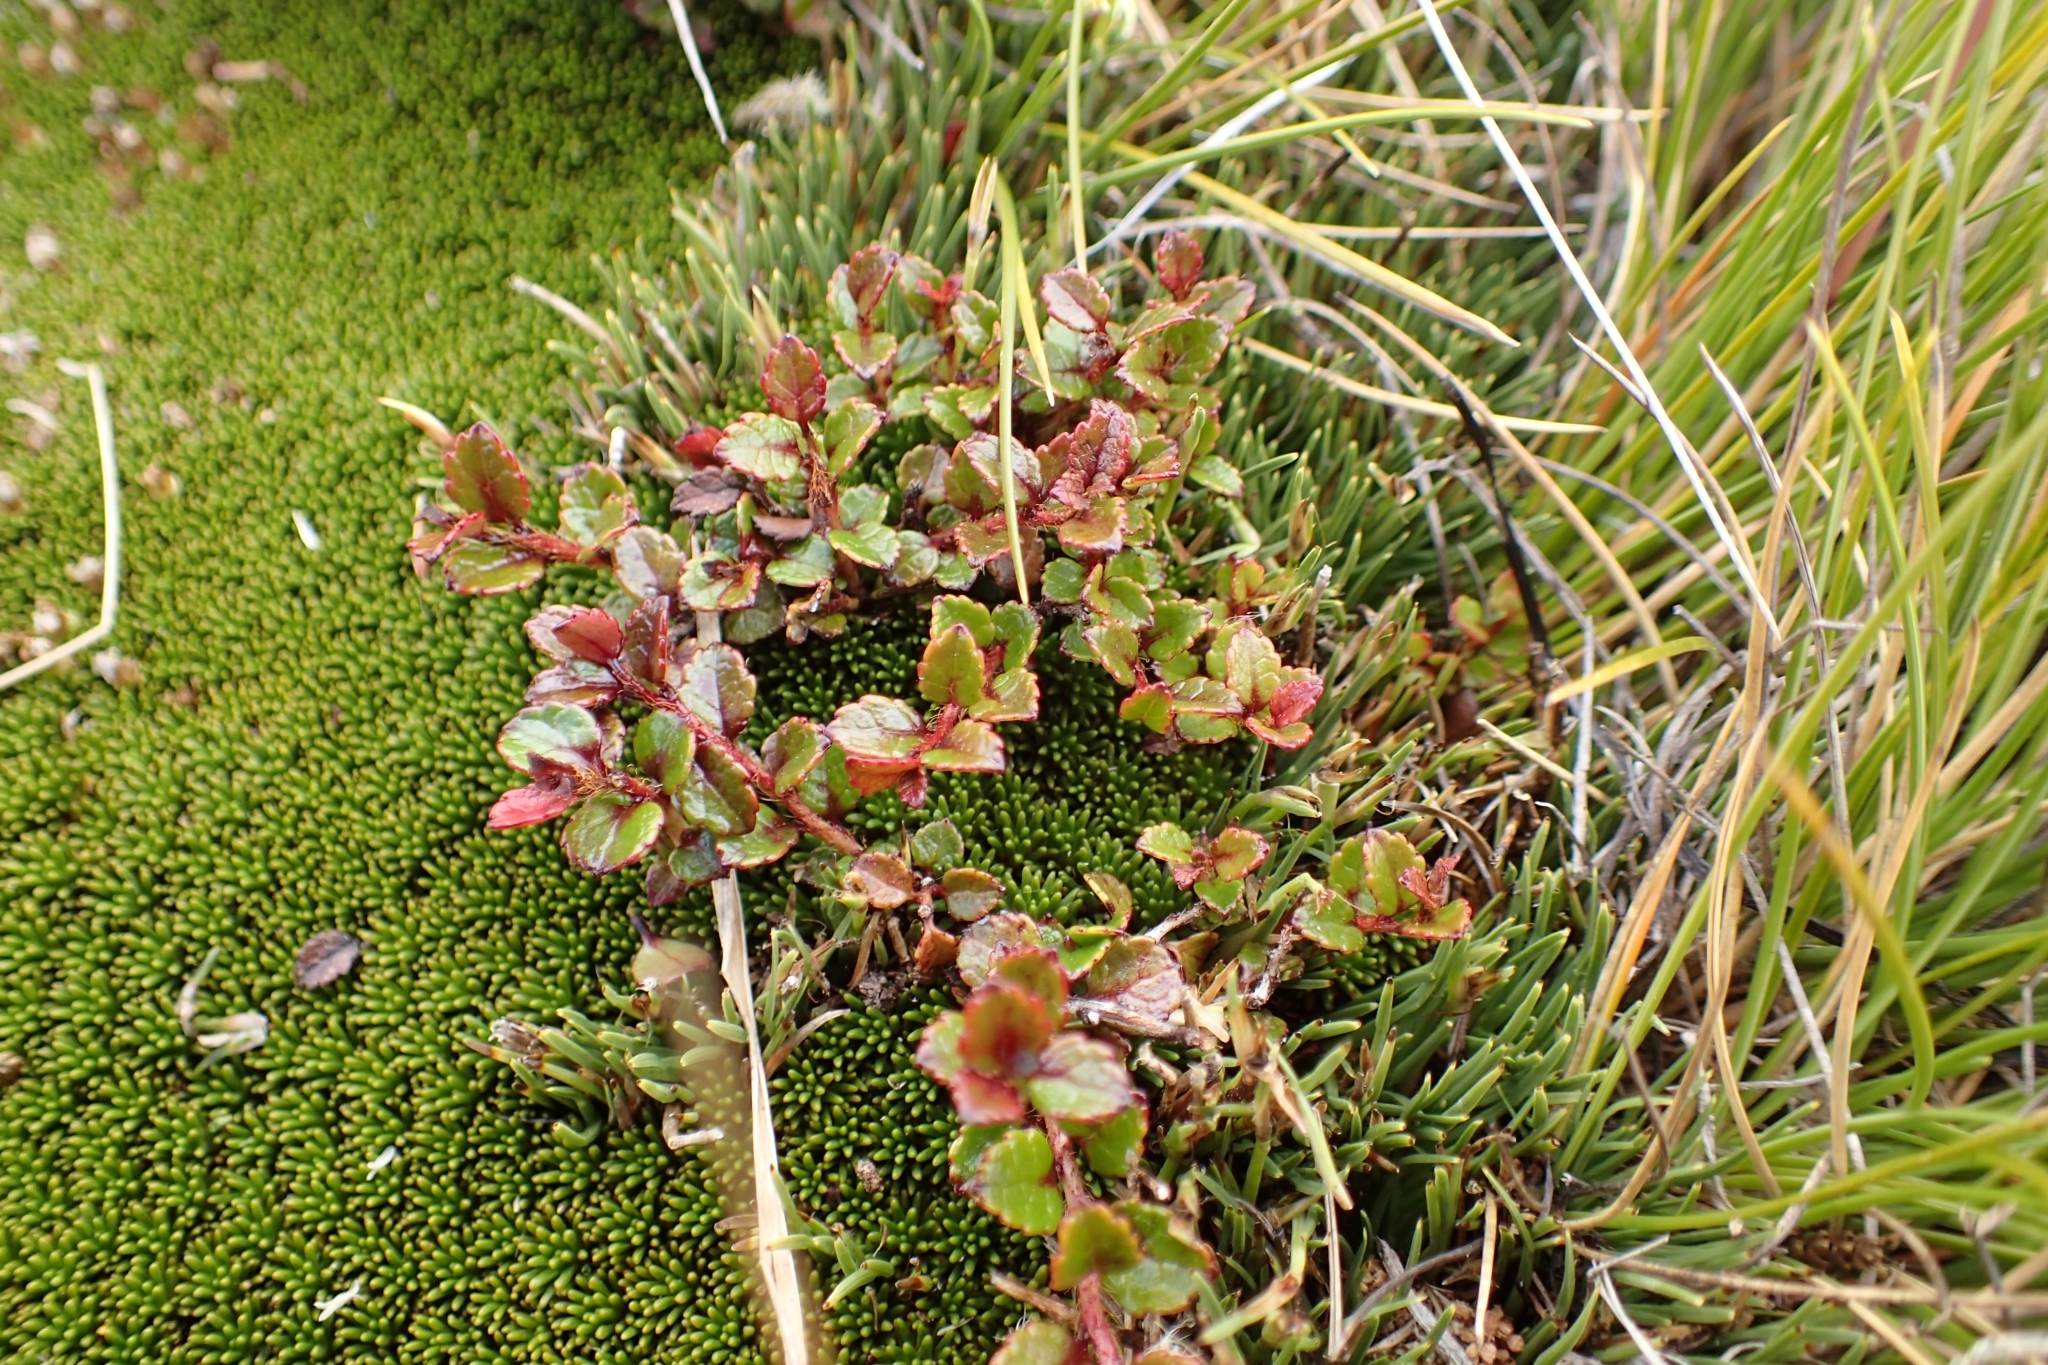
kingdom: Plantae
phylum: Tracheophyta
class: Magnoliopsida
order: Ericales
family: Ericaceae
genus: Gaultheria
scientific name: Gaultheria depressa
